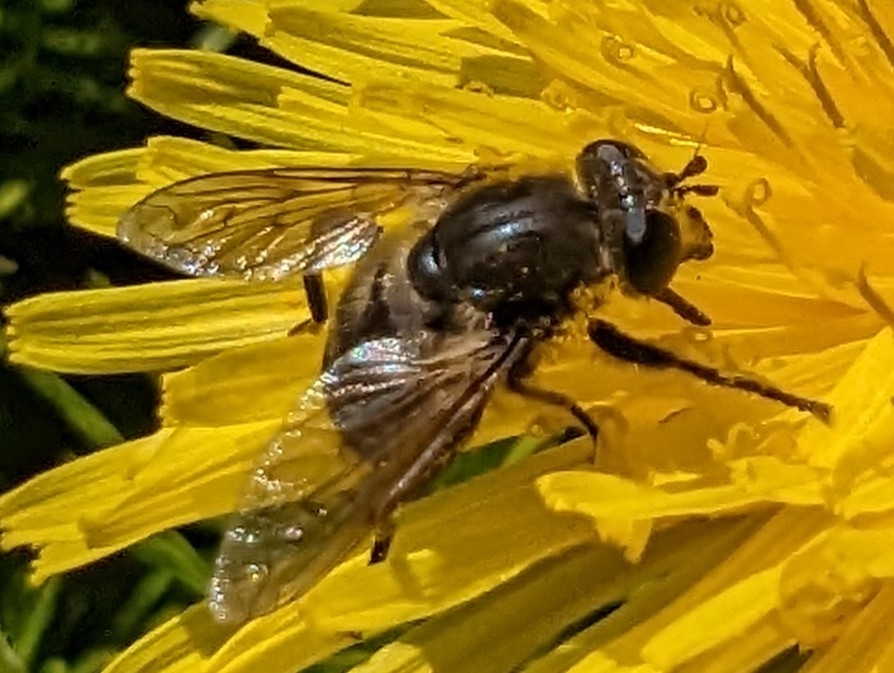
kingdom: Animalia
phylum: Arthropoda
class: Insecta
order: Diptera
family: Syrphidae
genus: Arctosyrphus
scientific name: Arctosyrphus willingii
